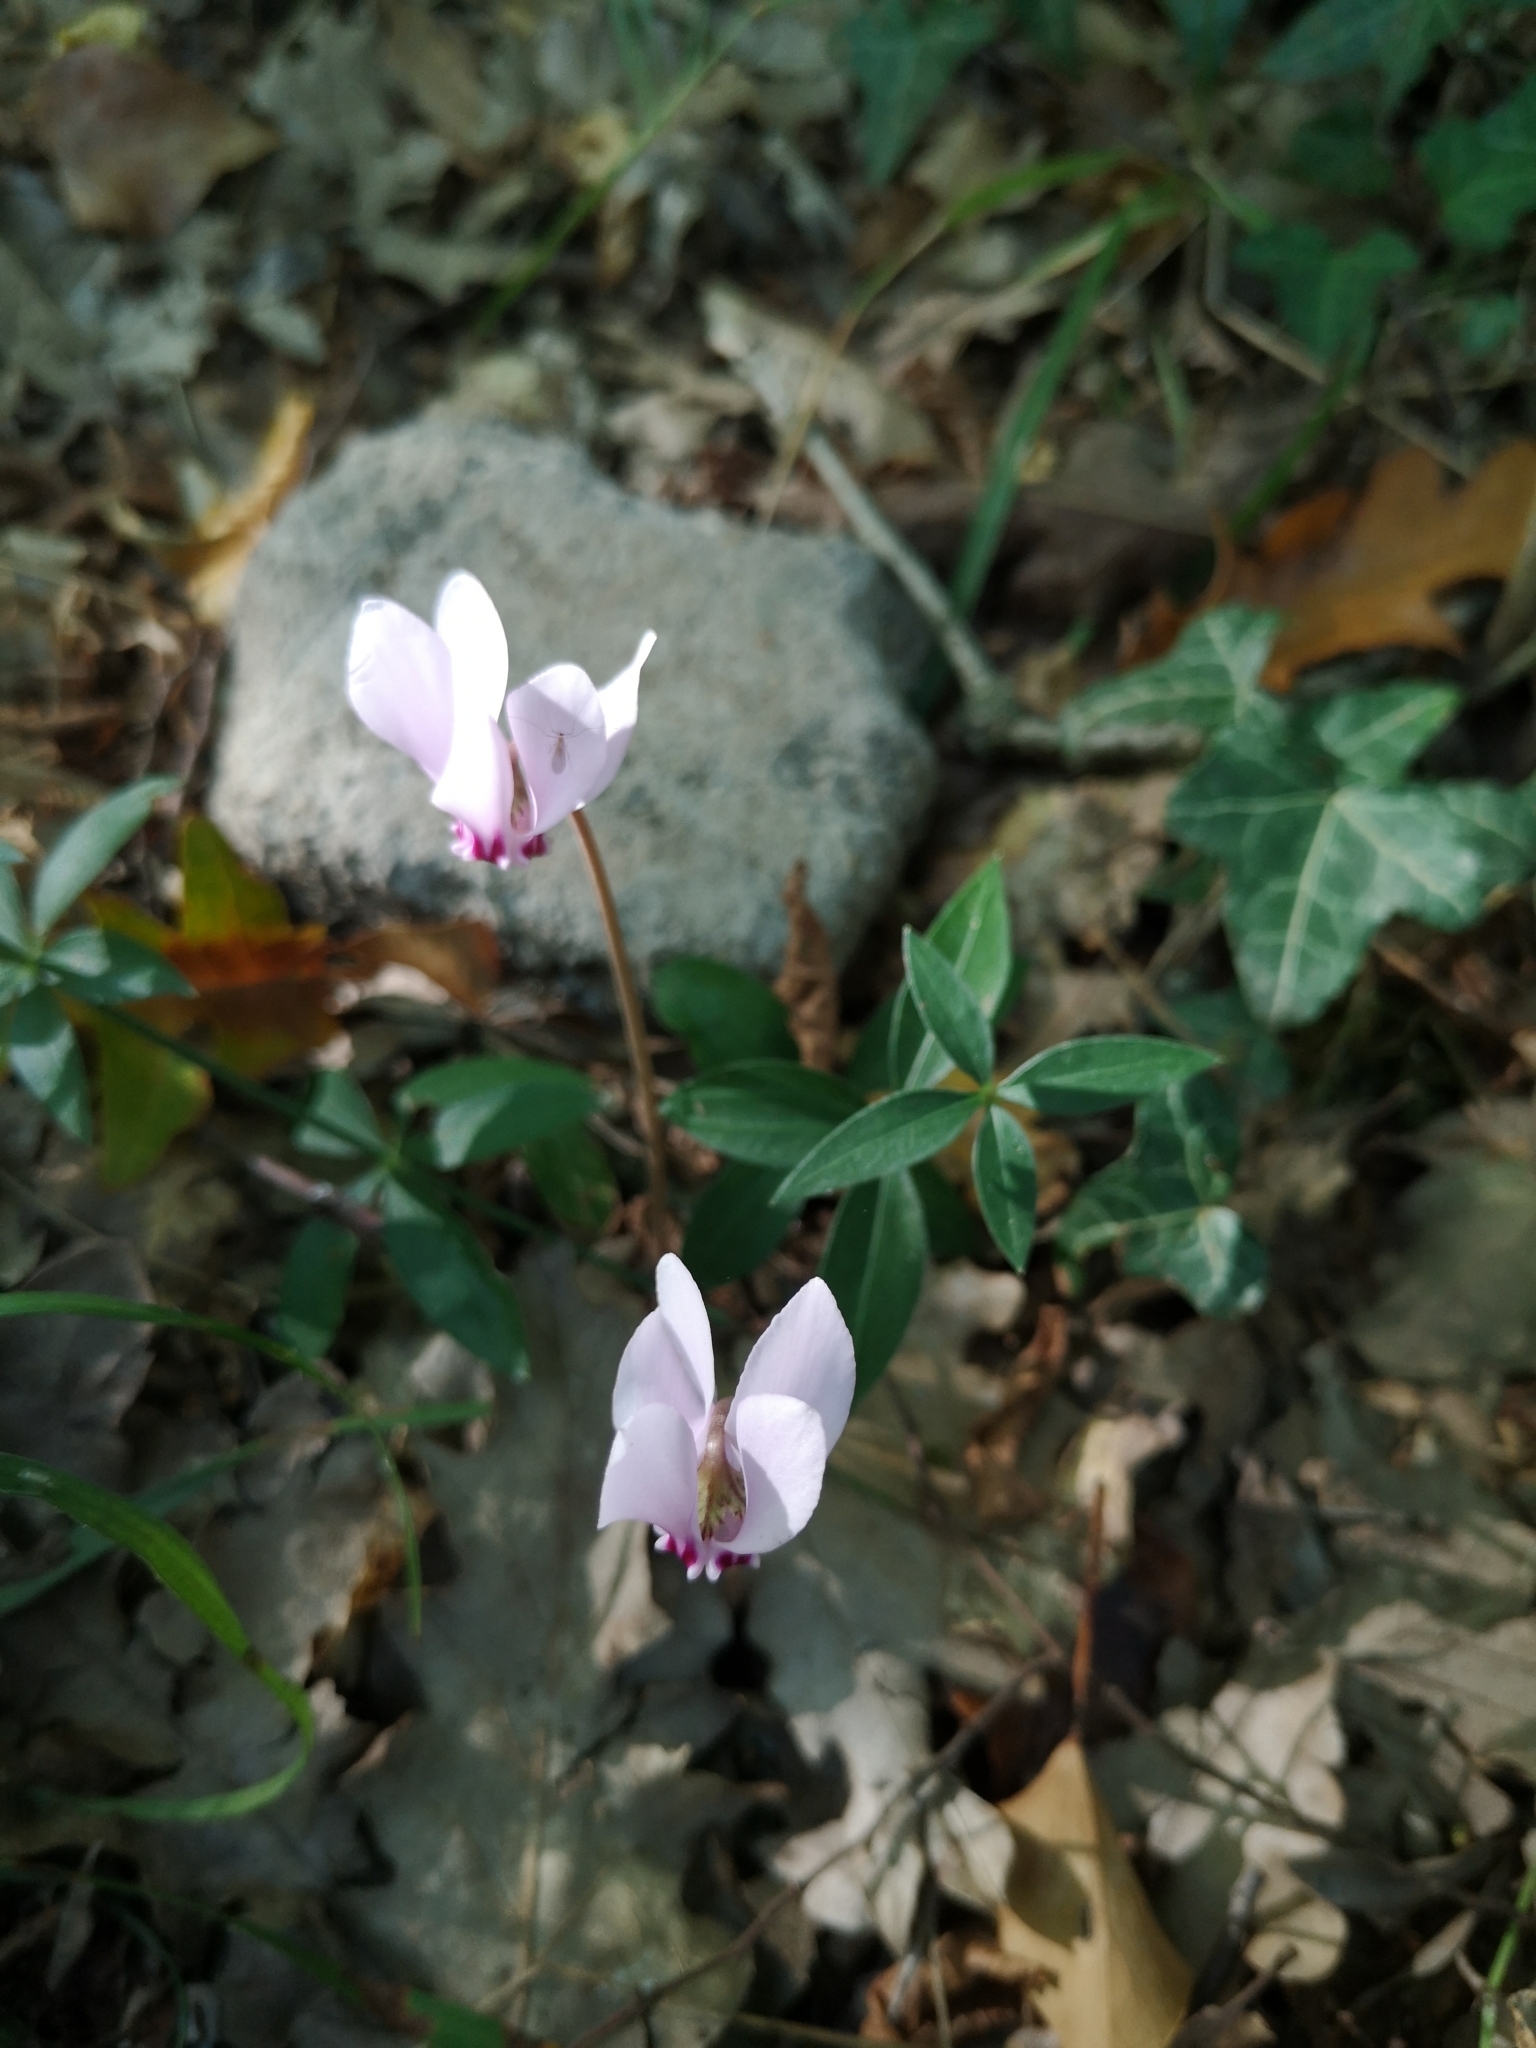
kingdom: Plantae
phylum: Tracheophyta
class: Magnoliopsida
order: Ericales
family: Primulaceae
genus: Cyclamen
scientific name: Cyclamen hederifolium
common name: Sowbread
